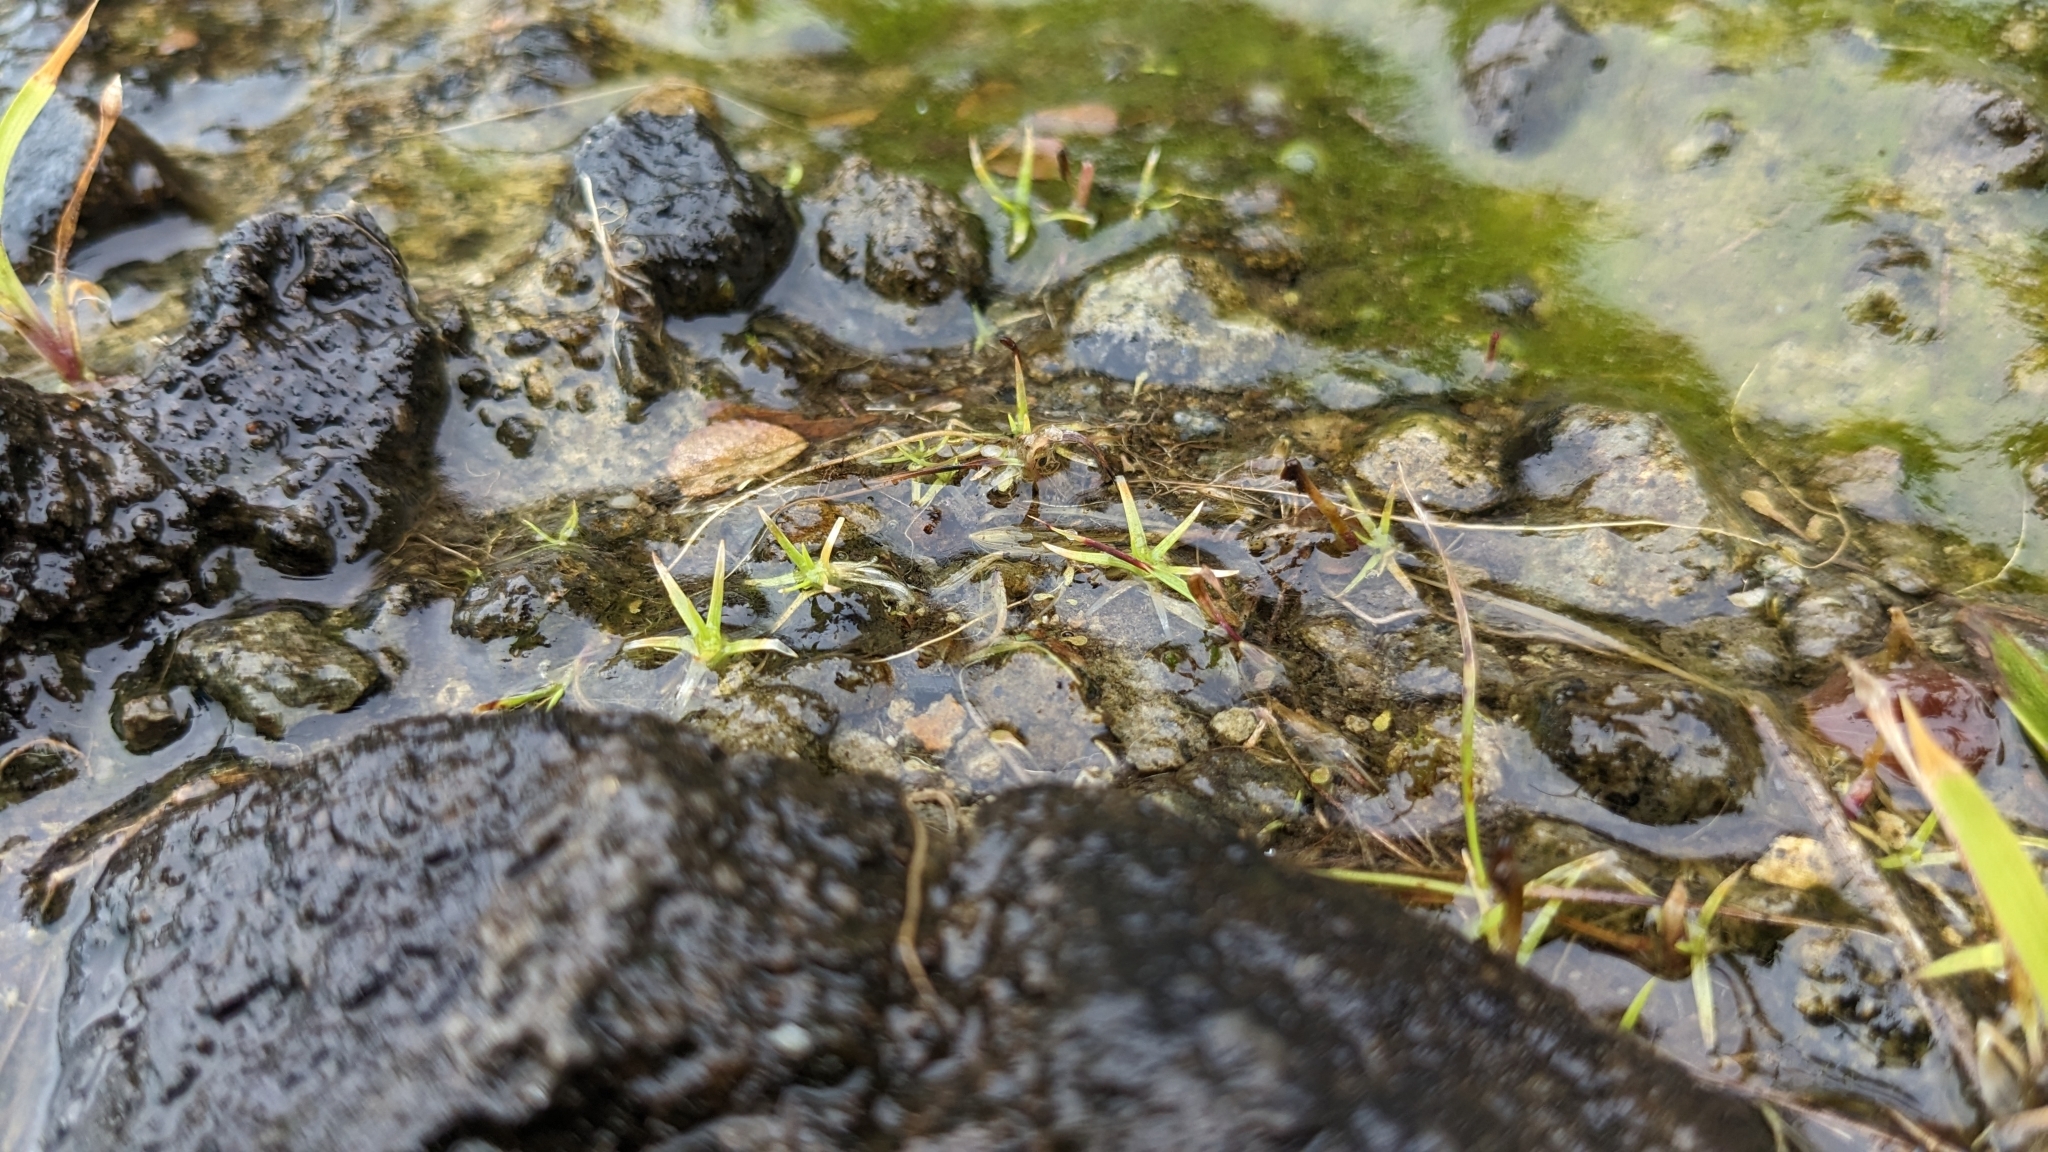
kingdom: Plantae
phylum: Tracheophyta
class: Liliopsida
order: Poales
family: Eriocaulaceae
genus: Eriocaulon
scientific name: Eriocaulon truncatum
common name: Short pipe-wort
